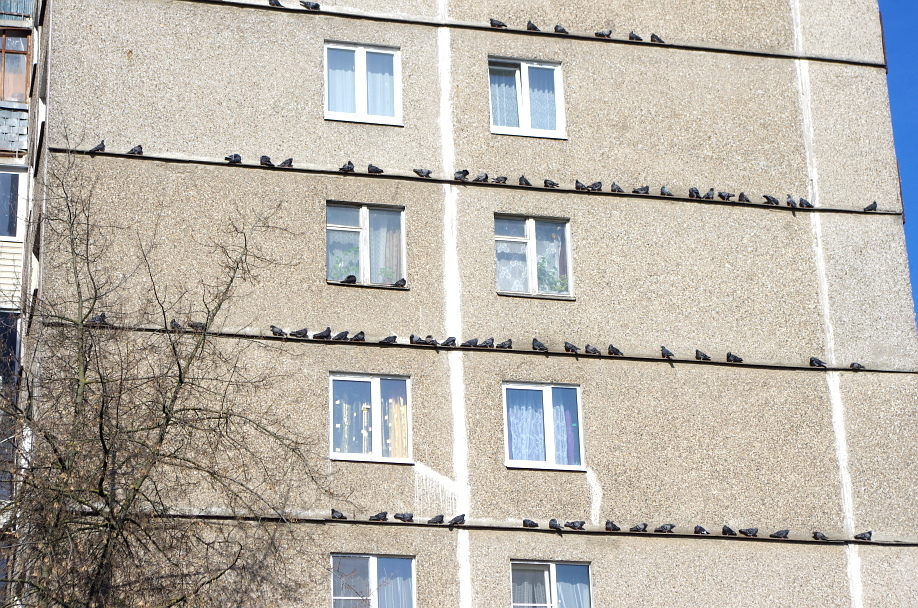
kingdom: Animalia
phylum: Chordata
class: Aves
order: Columbiformes
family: Columbidae
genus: Columba
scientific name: Columba livia
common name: Rock pigeon
